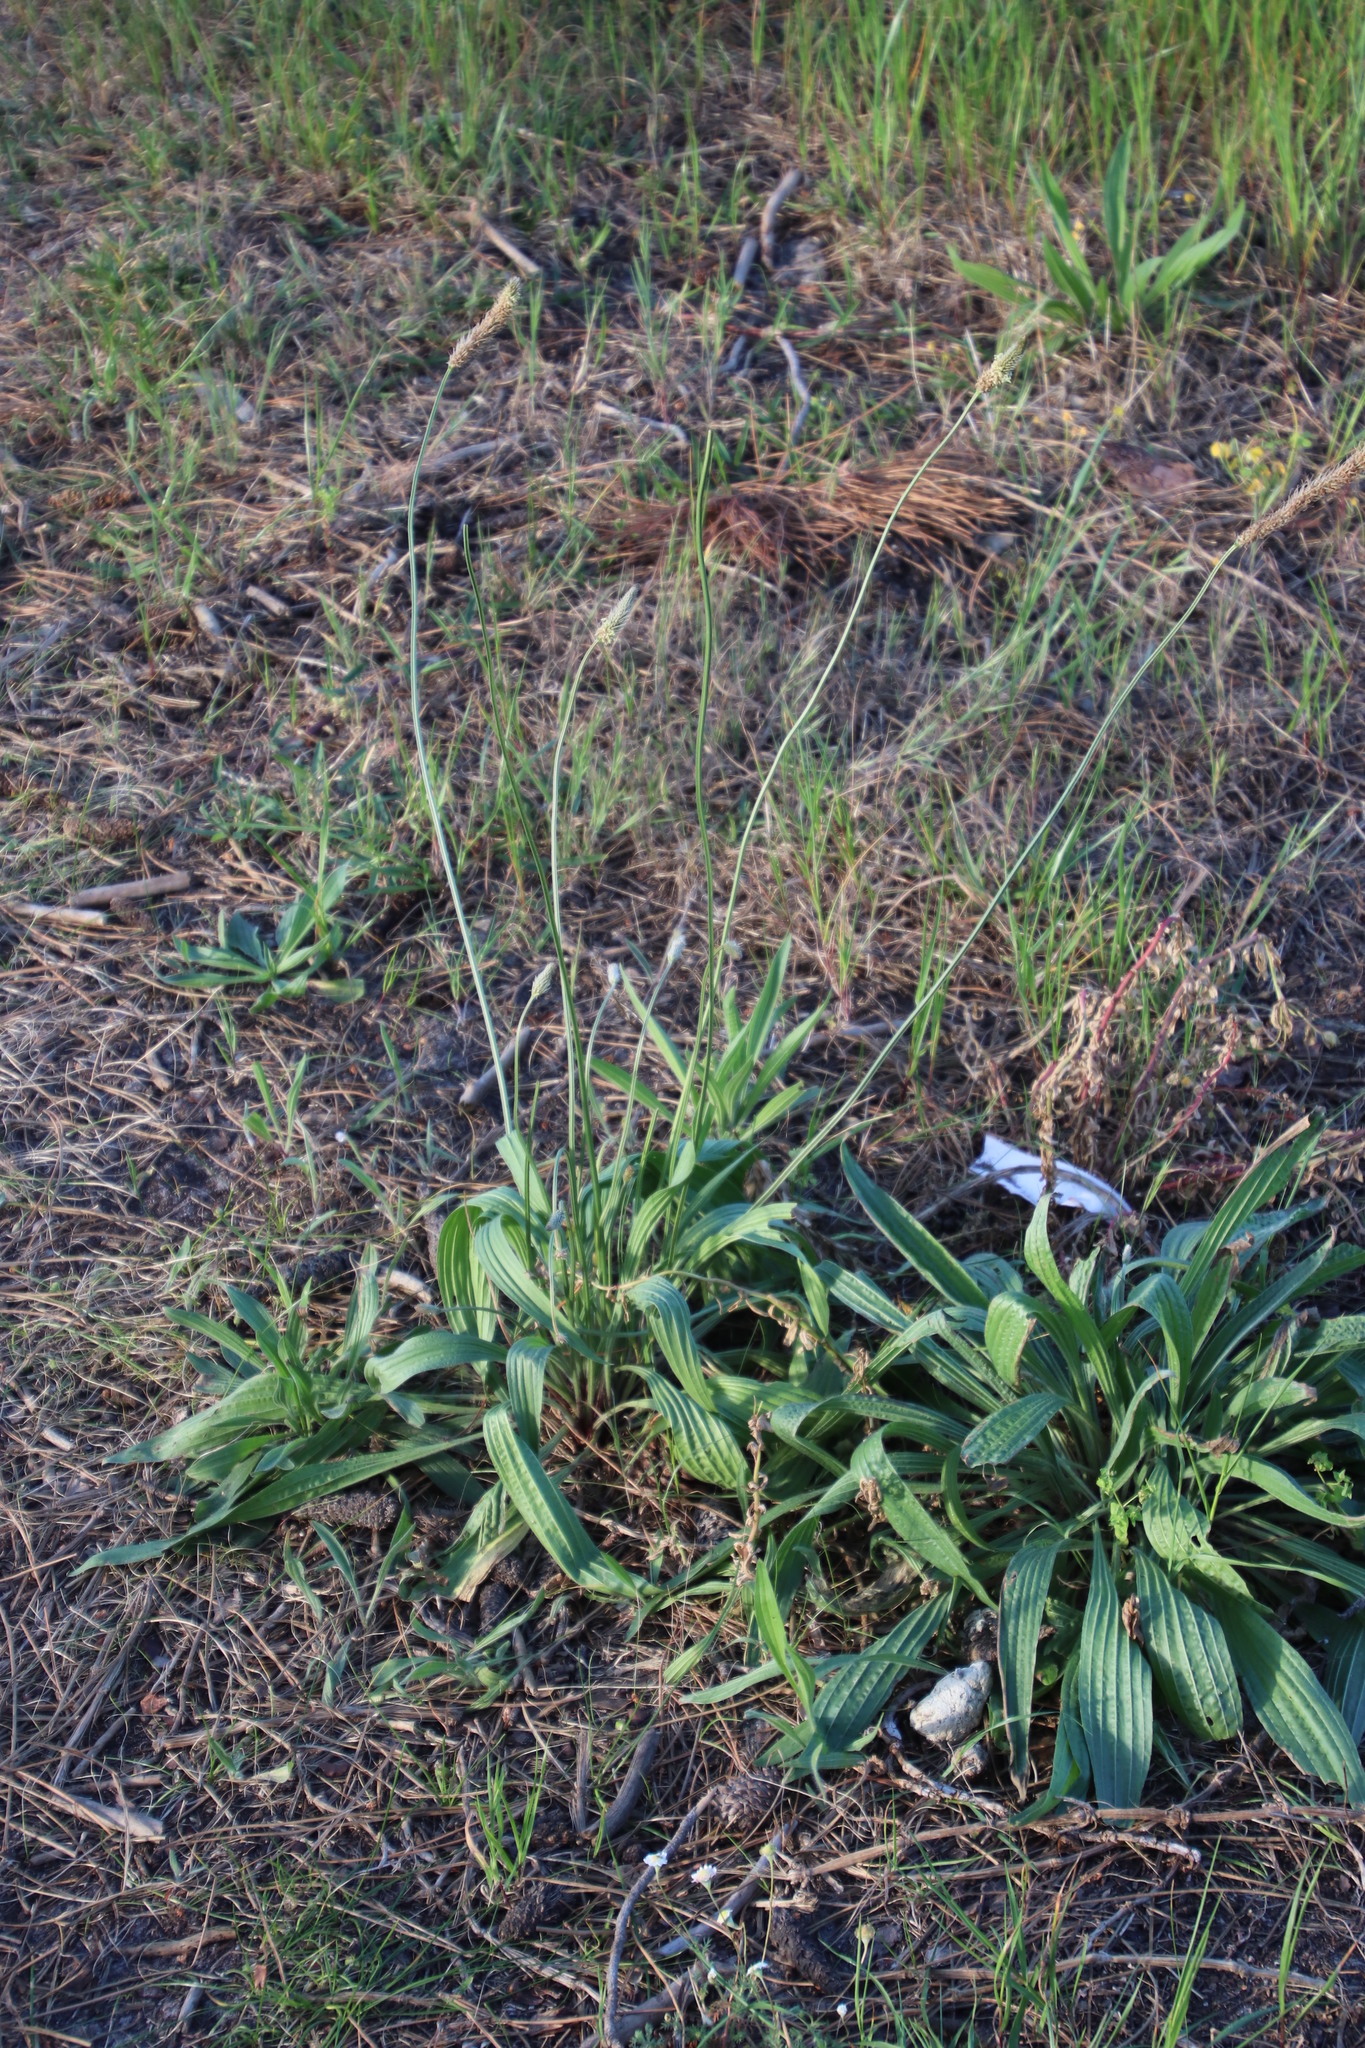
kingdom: Plantae
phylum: Tracheophyta
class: Magnoliopsida
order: Lamiales
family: Plantaginaceae
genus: Plantago
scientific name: Plantago lanceolata
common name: Ribwort plantain
